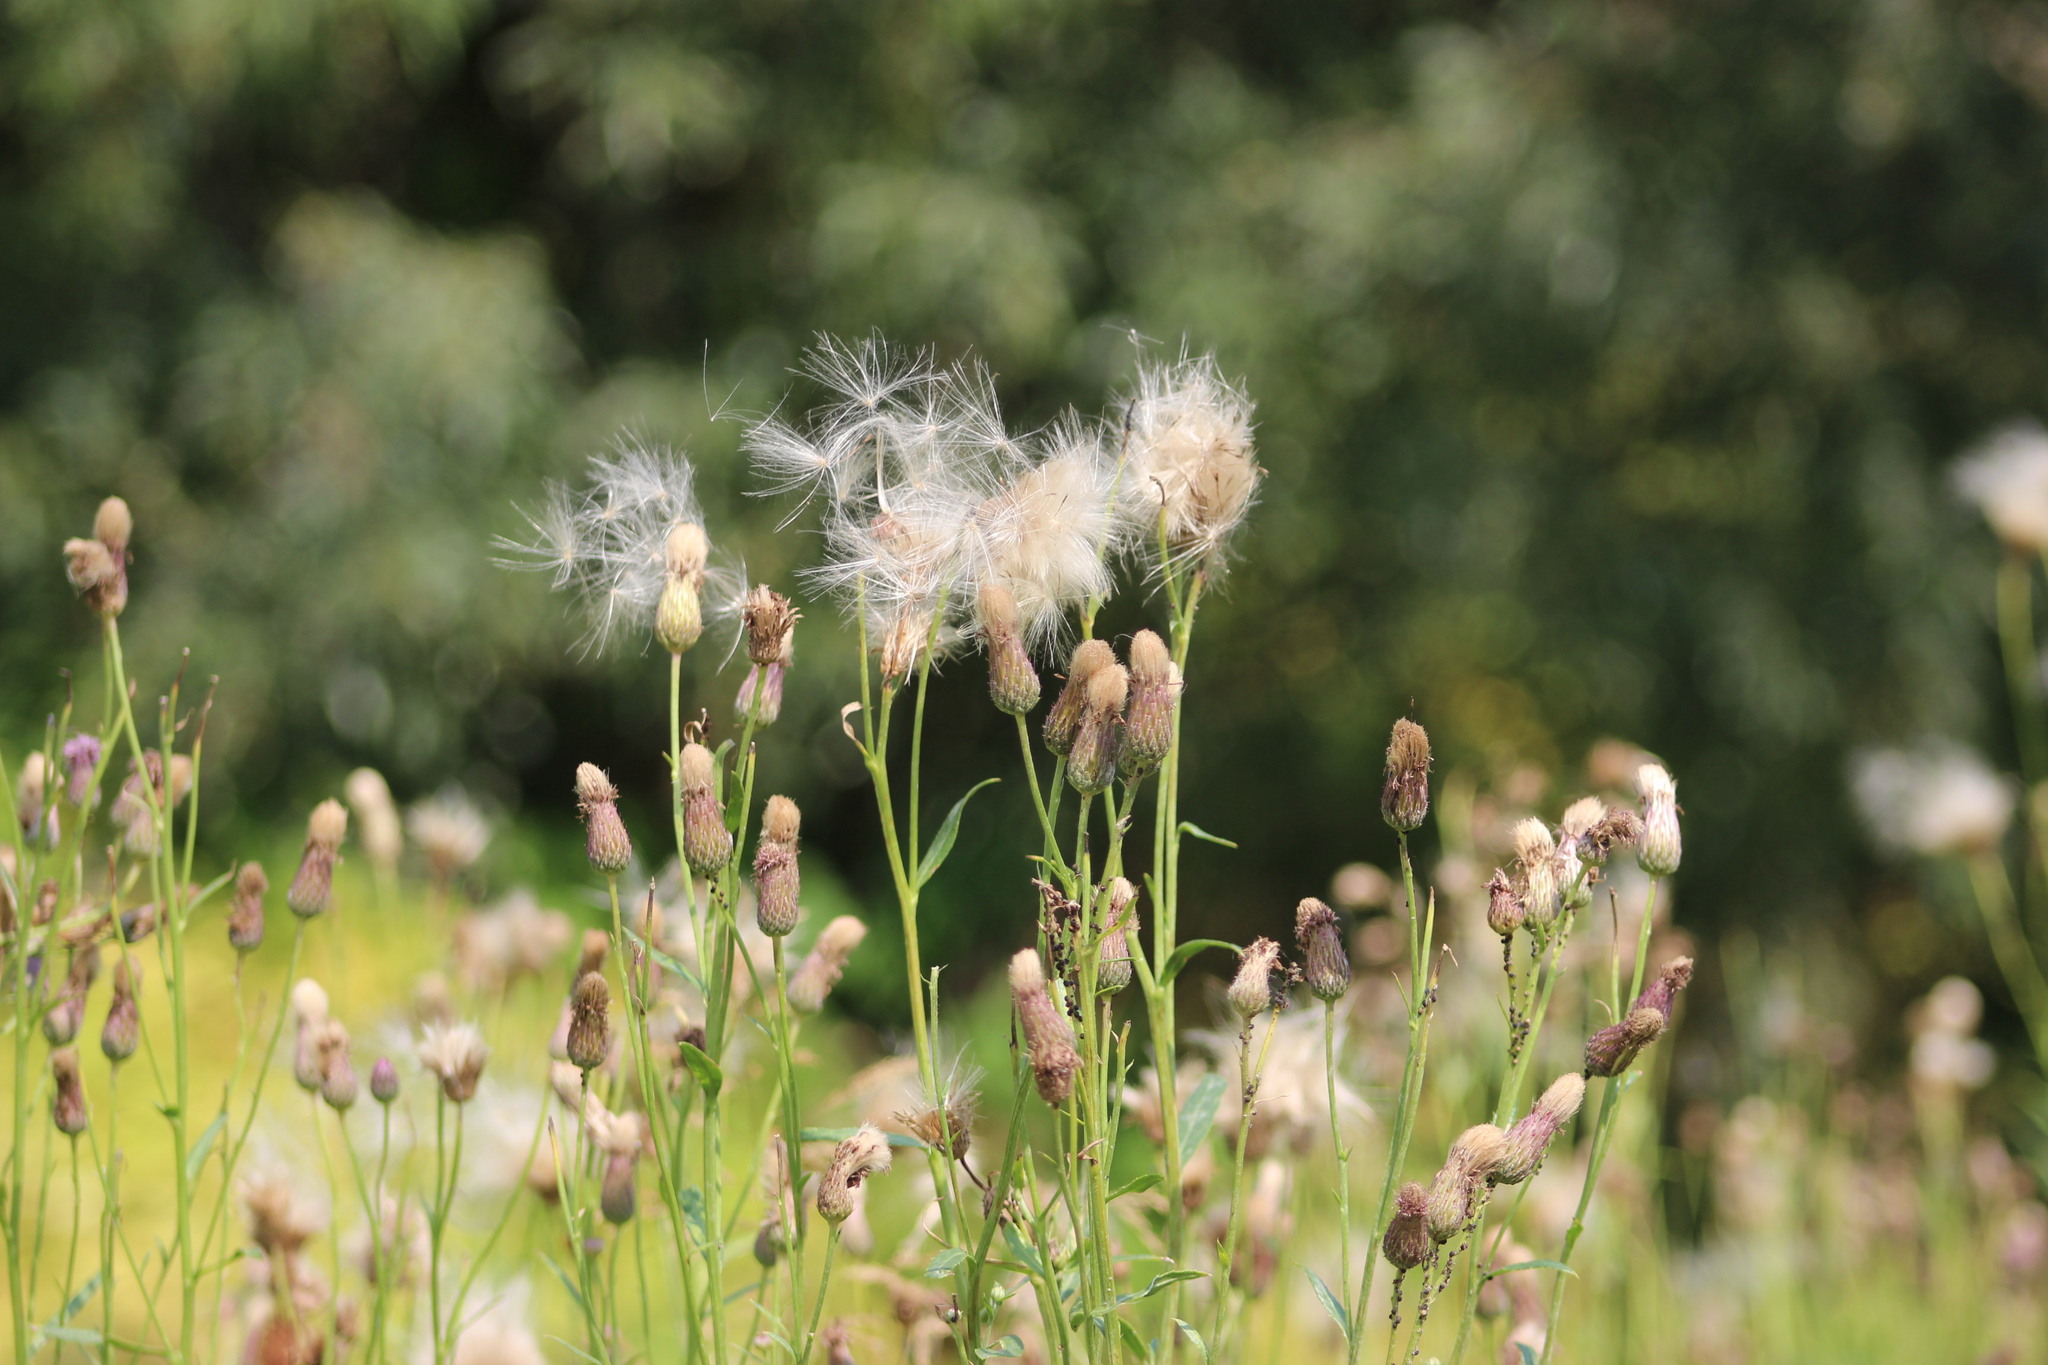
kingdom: Plantae
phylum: Tracheophyta
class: Magnoliopsida
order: Asterales
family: Asteraceae
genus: Cirsium
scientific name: Cirsium arvense
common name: Creeping thistle
